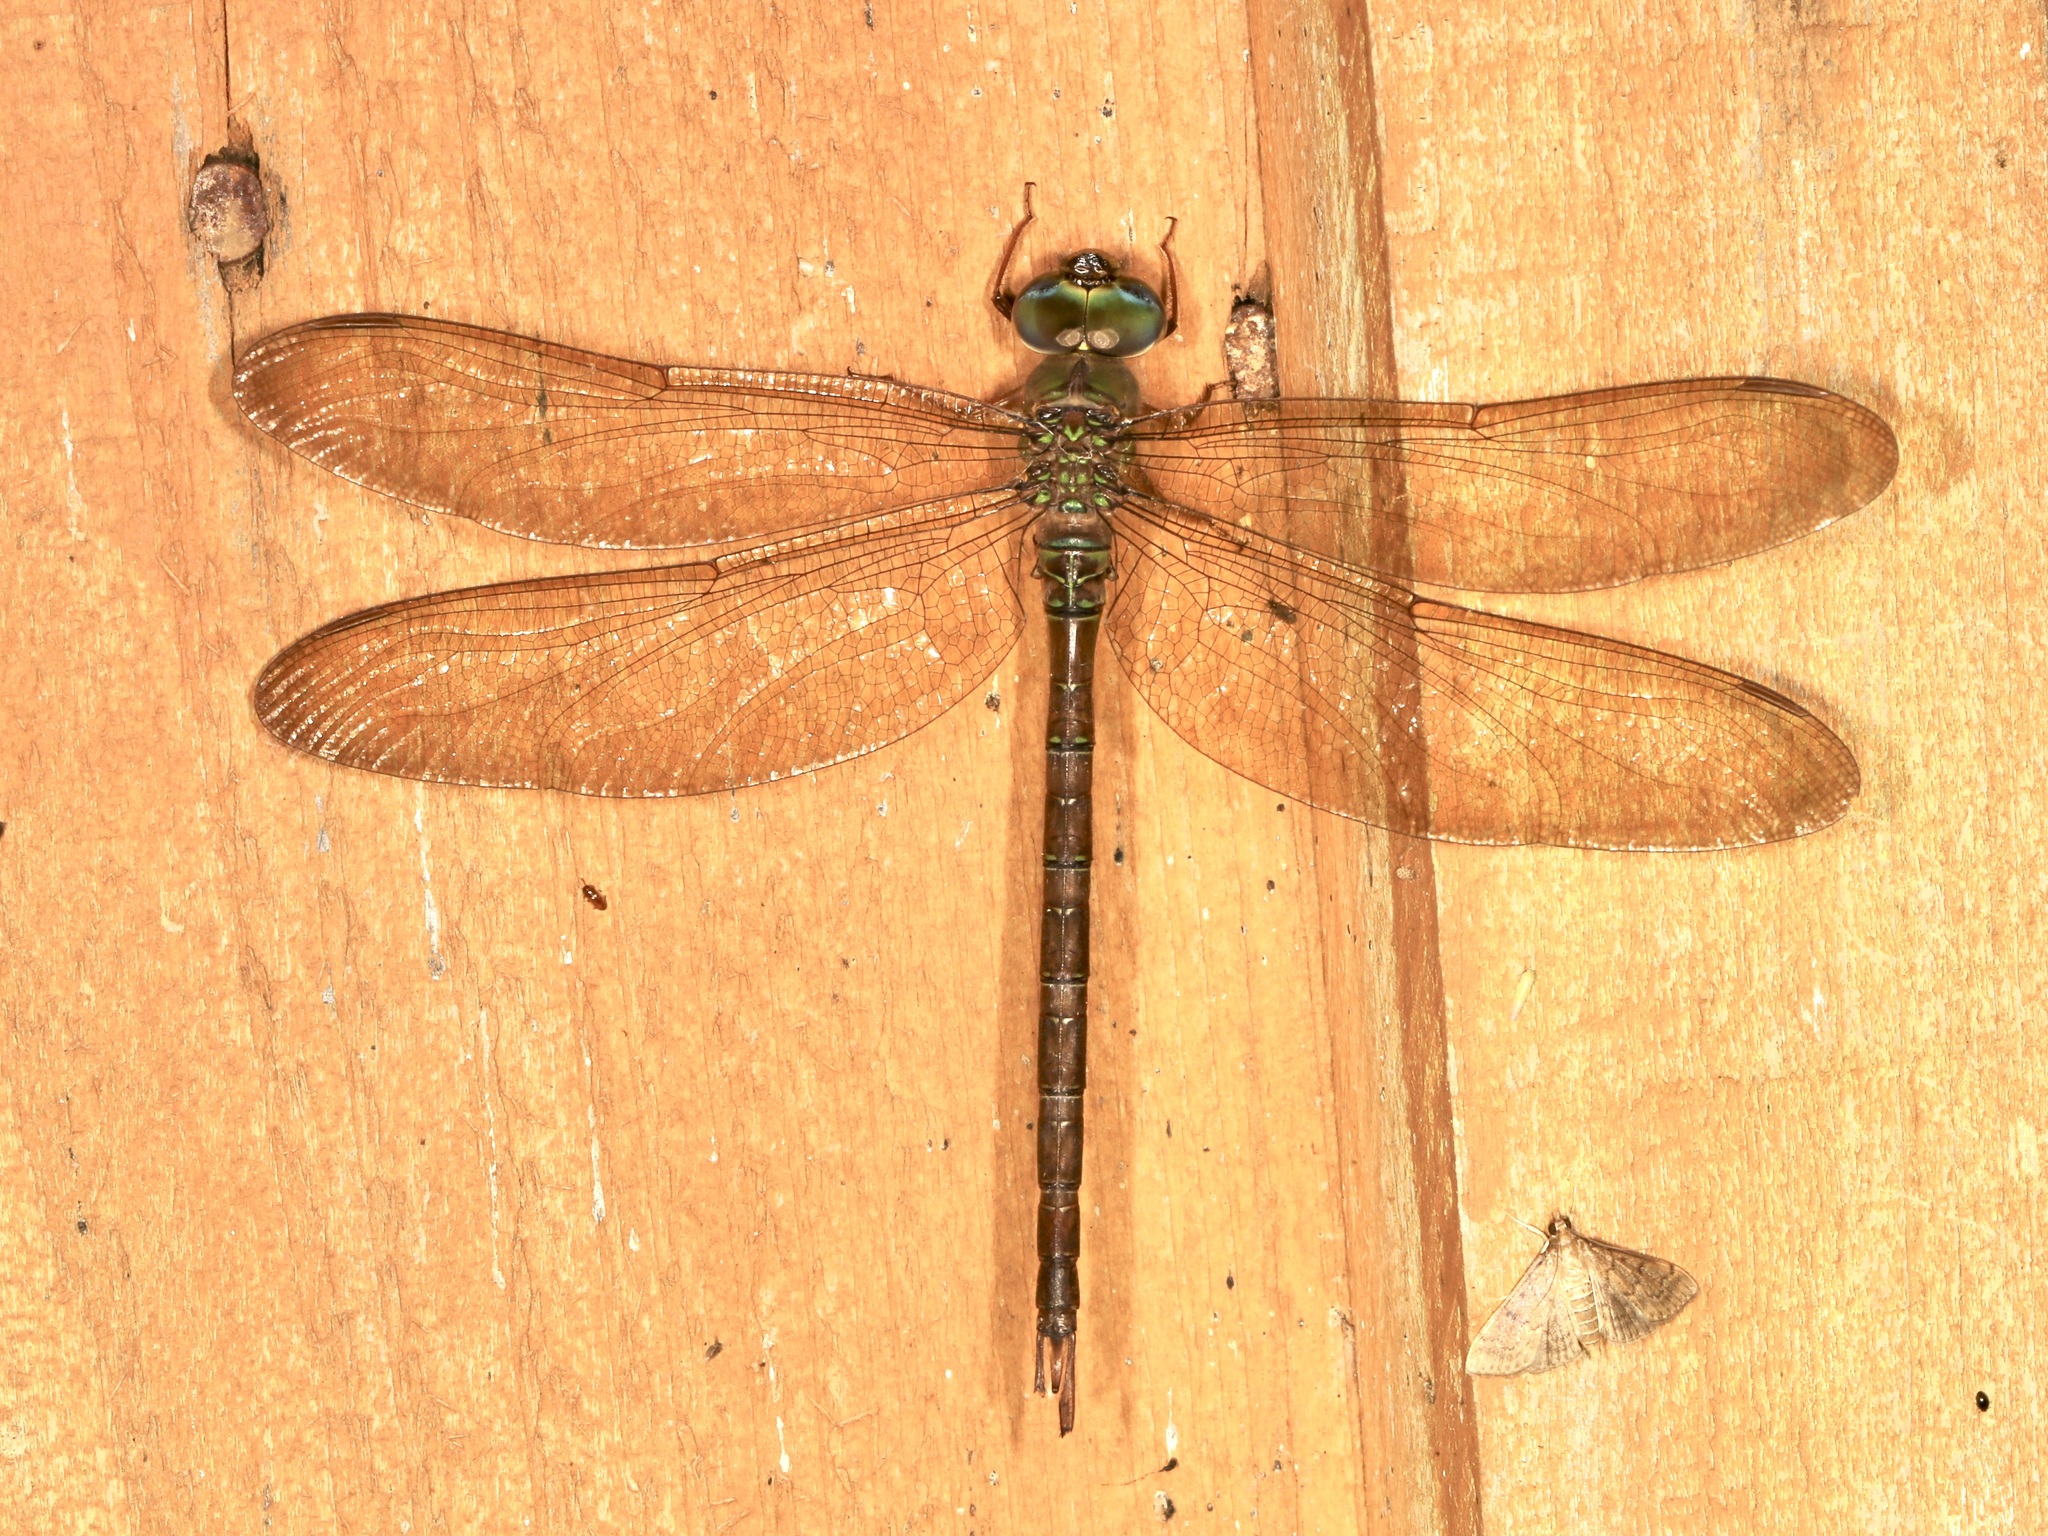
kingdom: Animalia
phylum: Arthropoda
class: Insecta
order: Odonata
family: Aeshnidae
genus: Gynacantha
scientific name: Gynacantha nervosa
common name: Twilight darner
